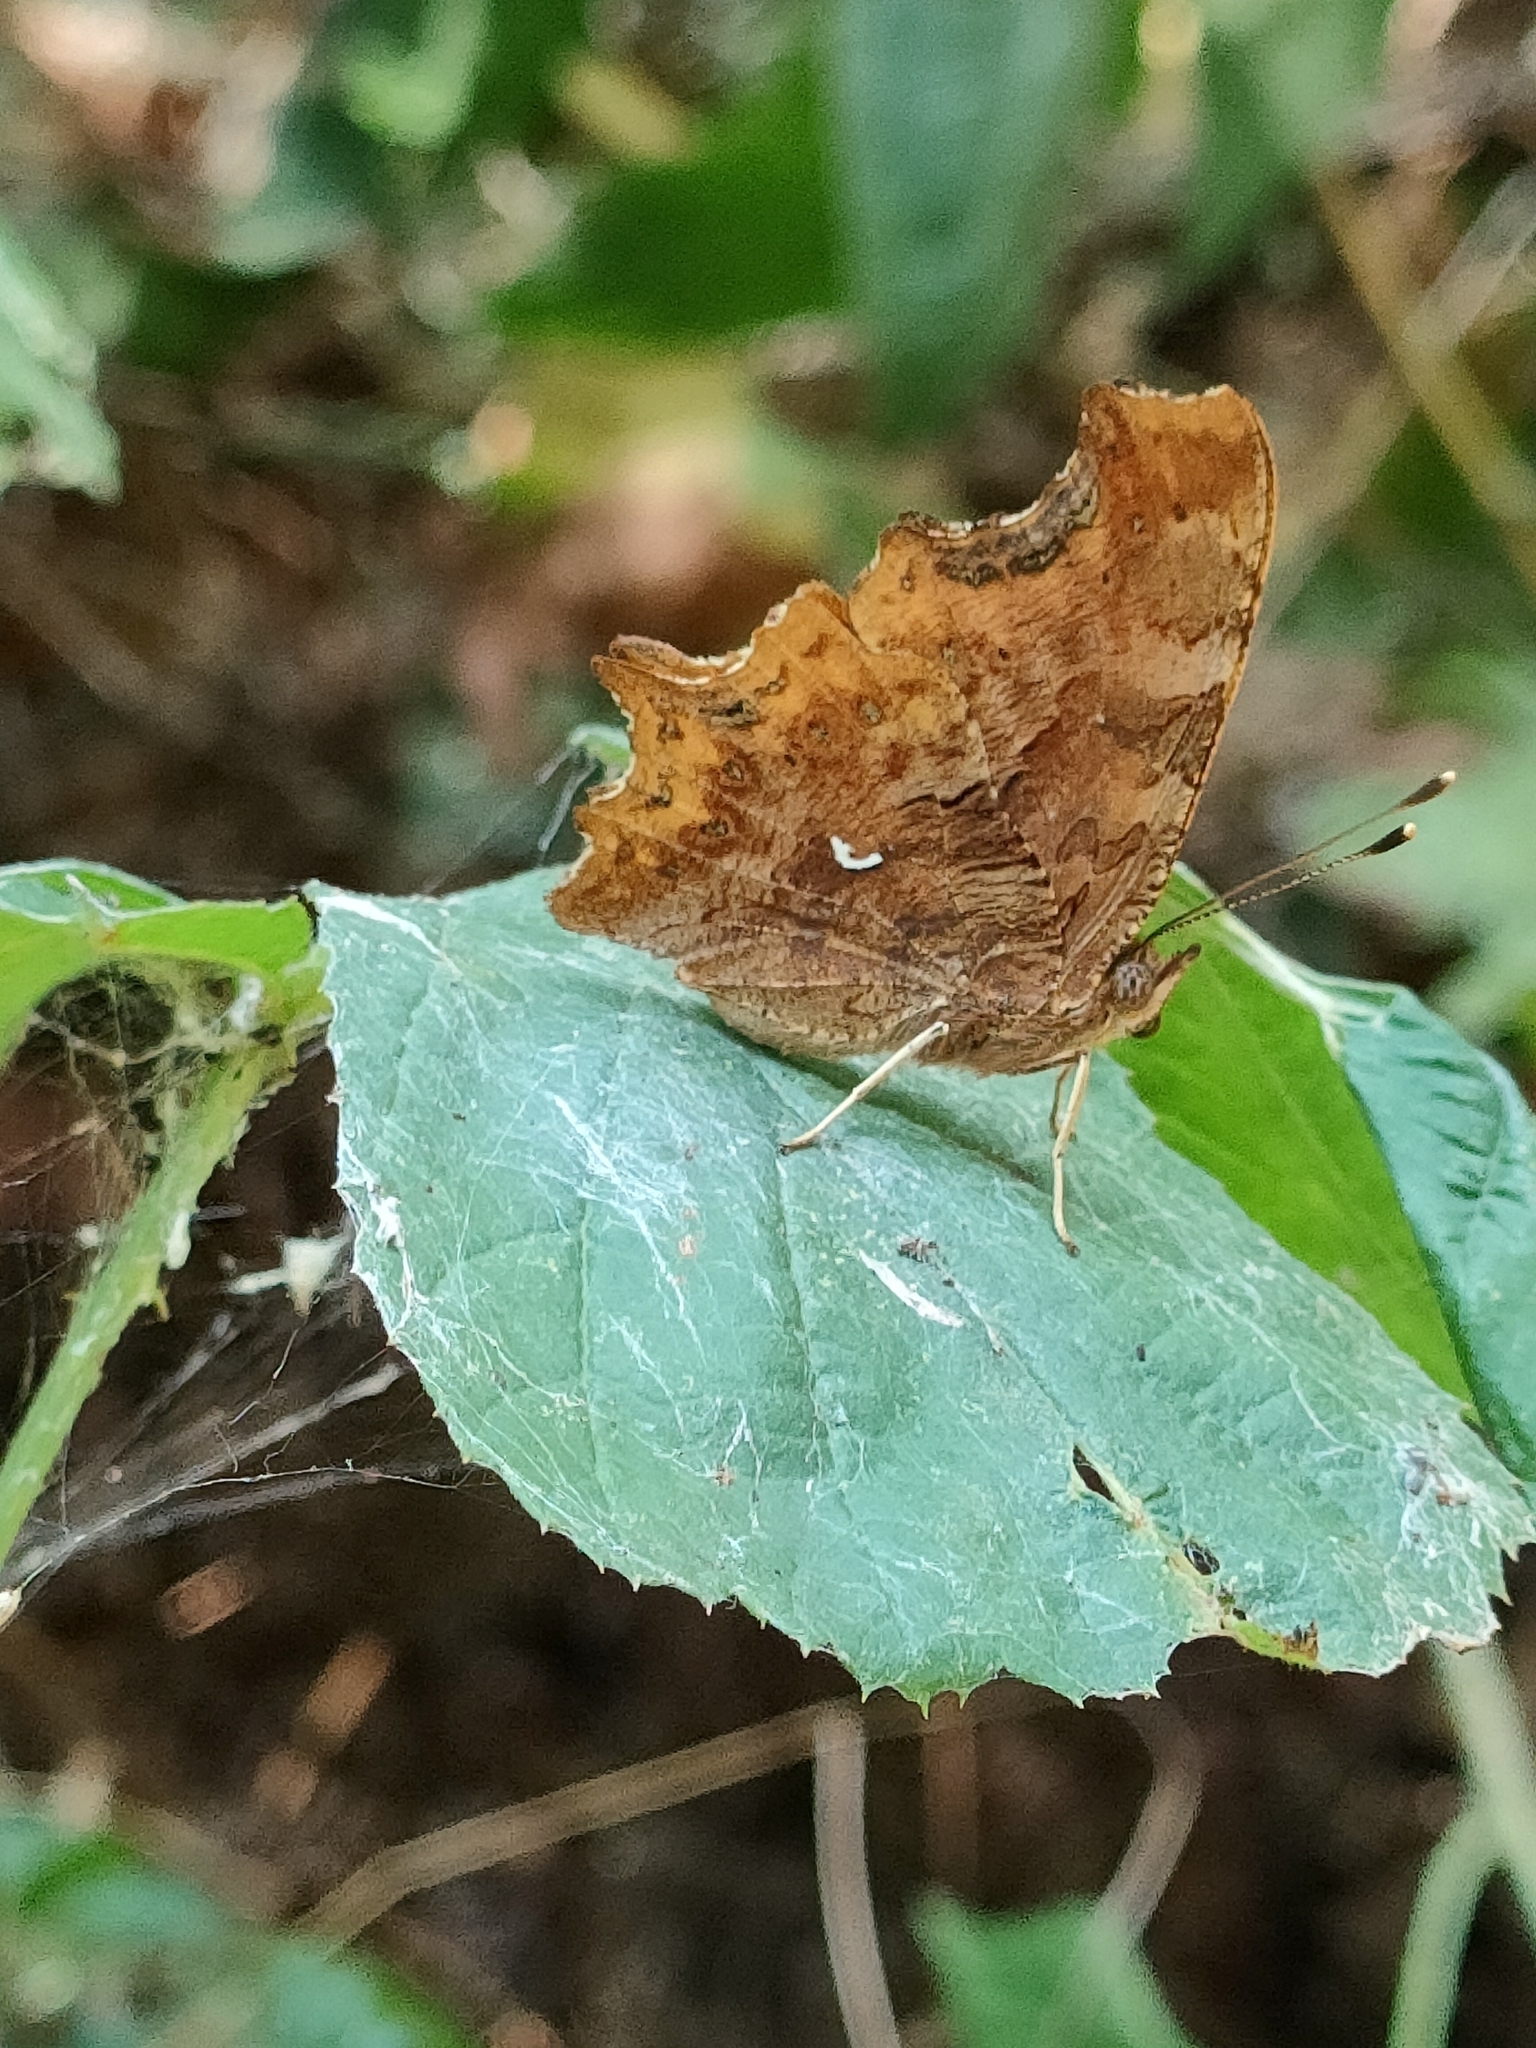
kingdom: Animalia
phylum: Arthropoda
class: Insecta
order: Lepidoptera
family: Nymphalidae
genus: Polygonia
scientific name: Polygonia c-album
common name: Comma
